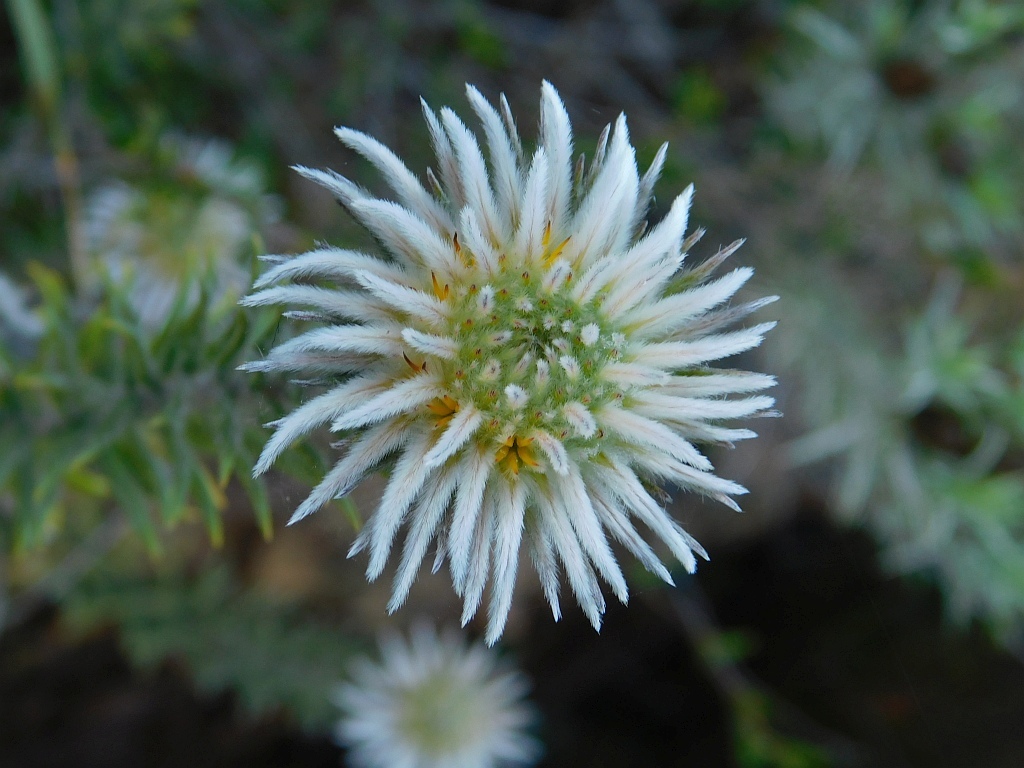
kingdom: Plantae
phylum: Tracheophyta
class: Magnoliopsida
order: Rosales
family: Rhamnaceae
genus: Phylica
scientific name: Phylica calcarata
